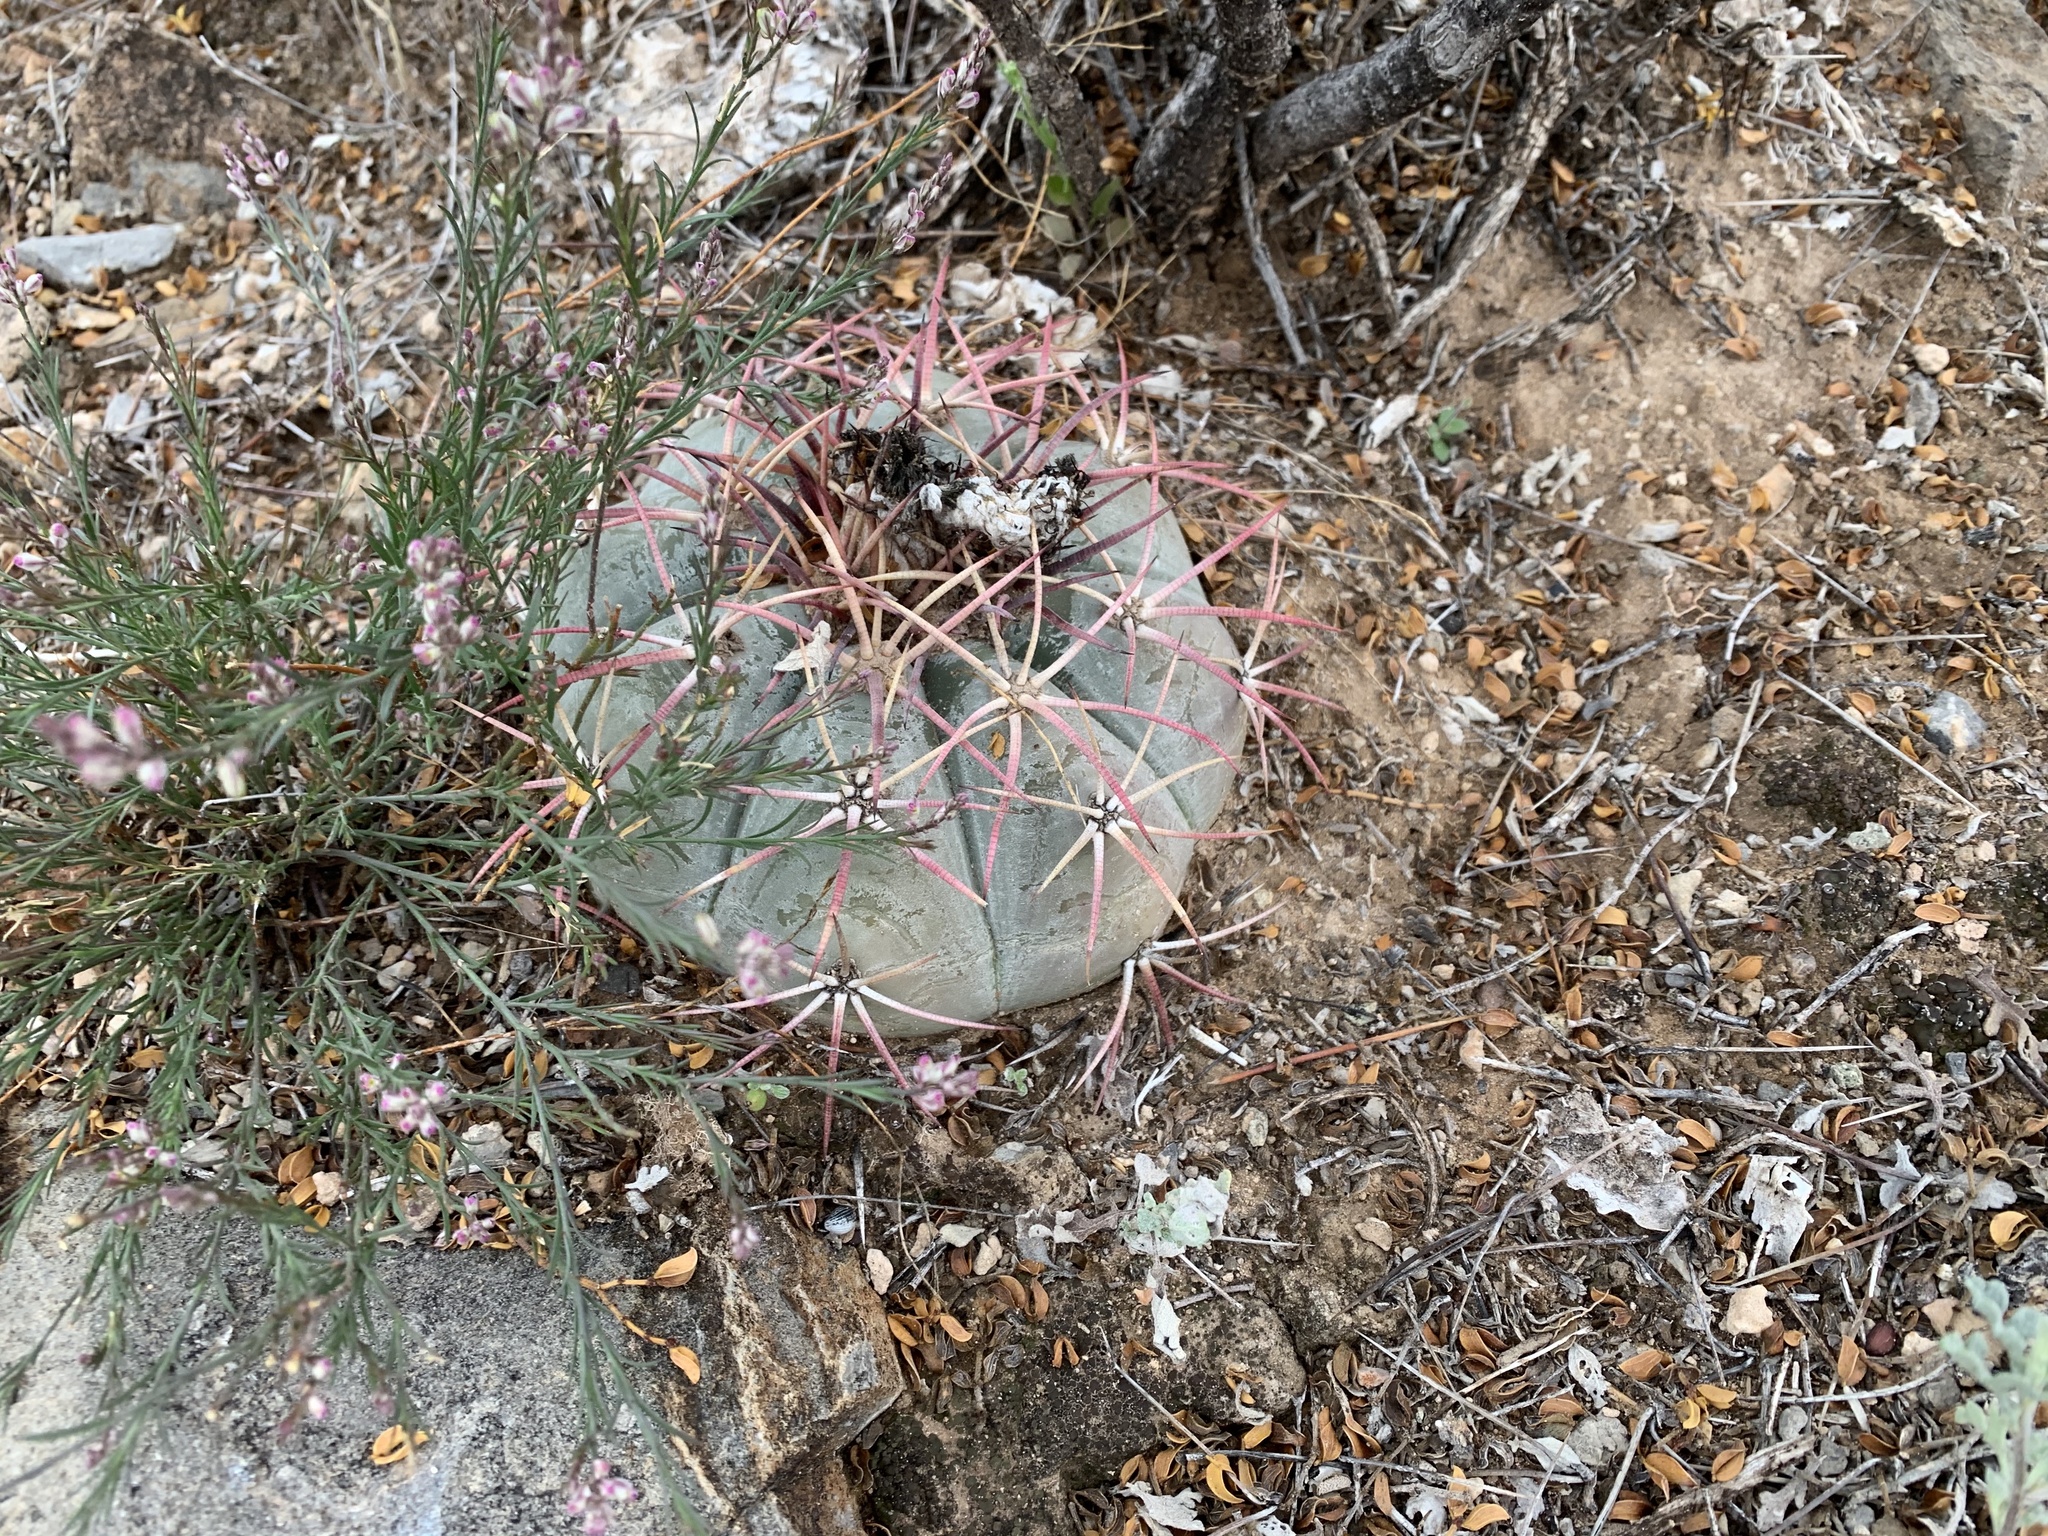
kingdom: Plantae
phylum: Tracheophyta
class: Magnoliopsida
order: Caryophyllales
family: Cactaceae
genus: Echinocactus
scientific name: Echinocactus horizonthalonius
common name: Devilshead
